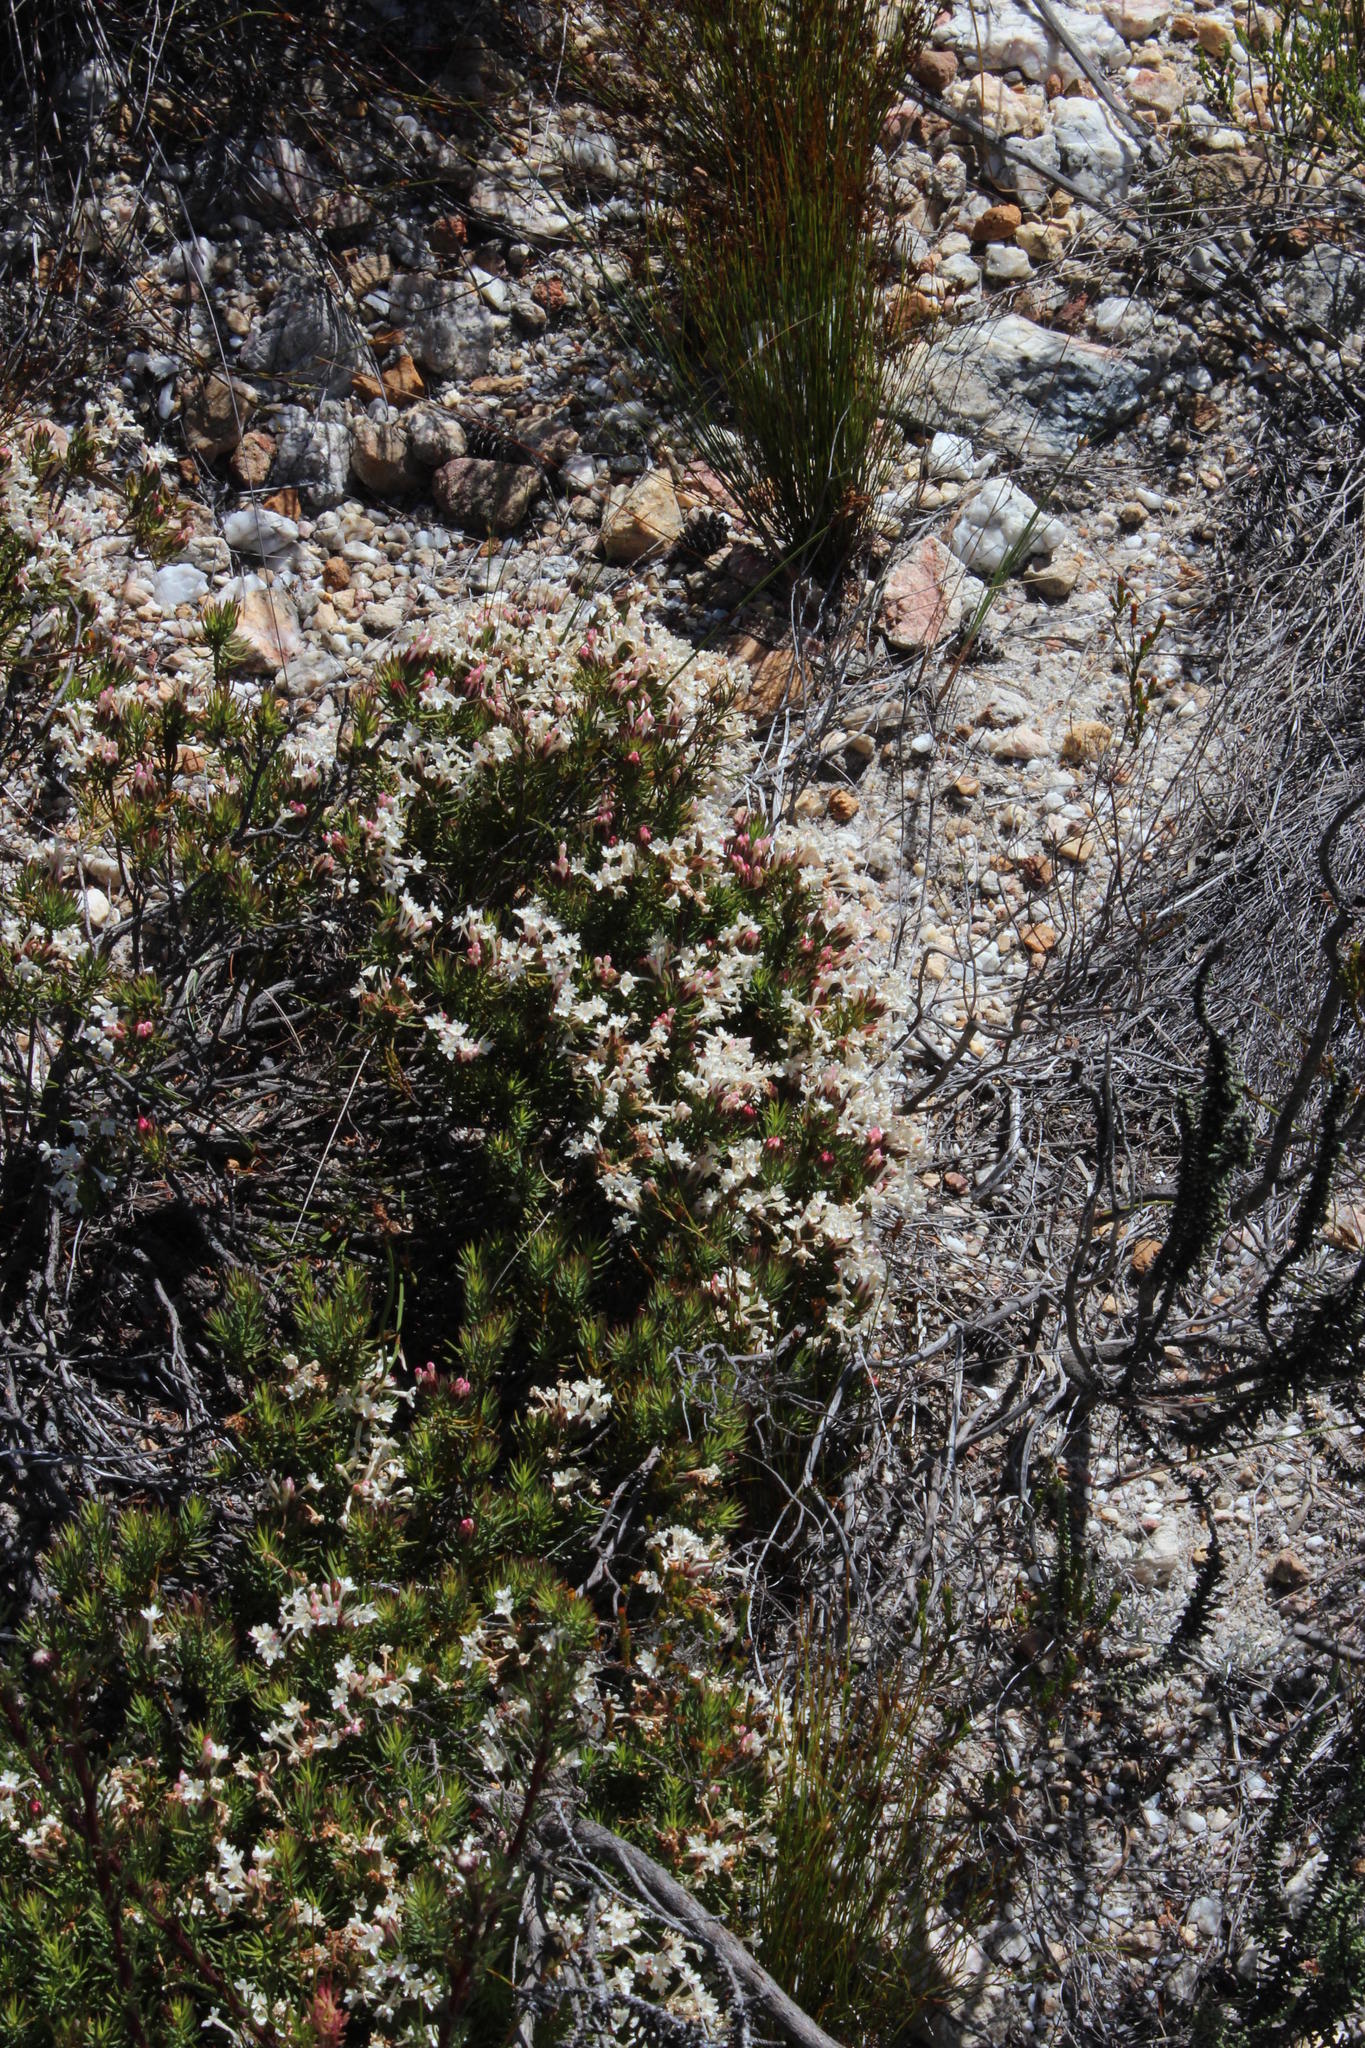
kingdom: Plantae
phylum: Tracheophyta
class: Magnoliopsida
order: Malvales
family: Thymelaeaceae
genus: Gnidia
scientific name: Gnidia pinifolia
